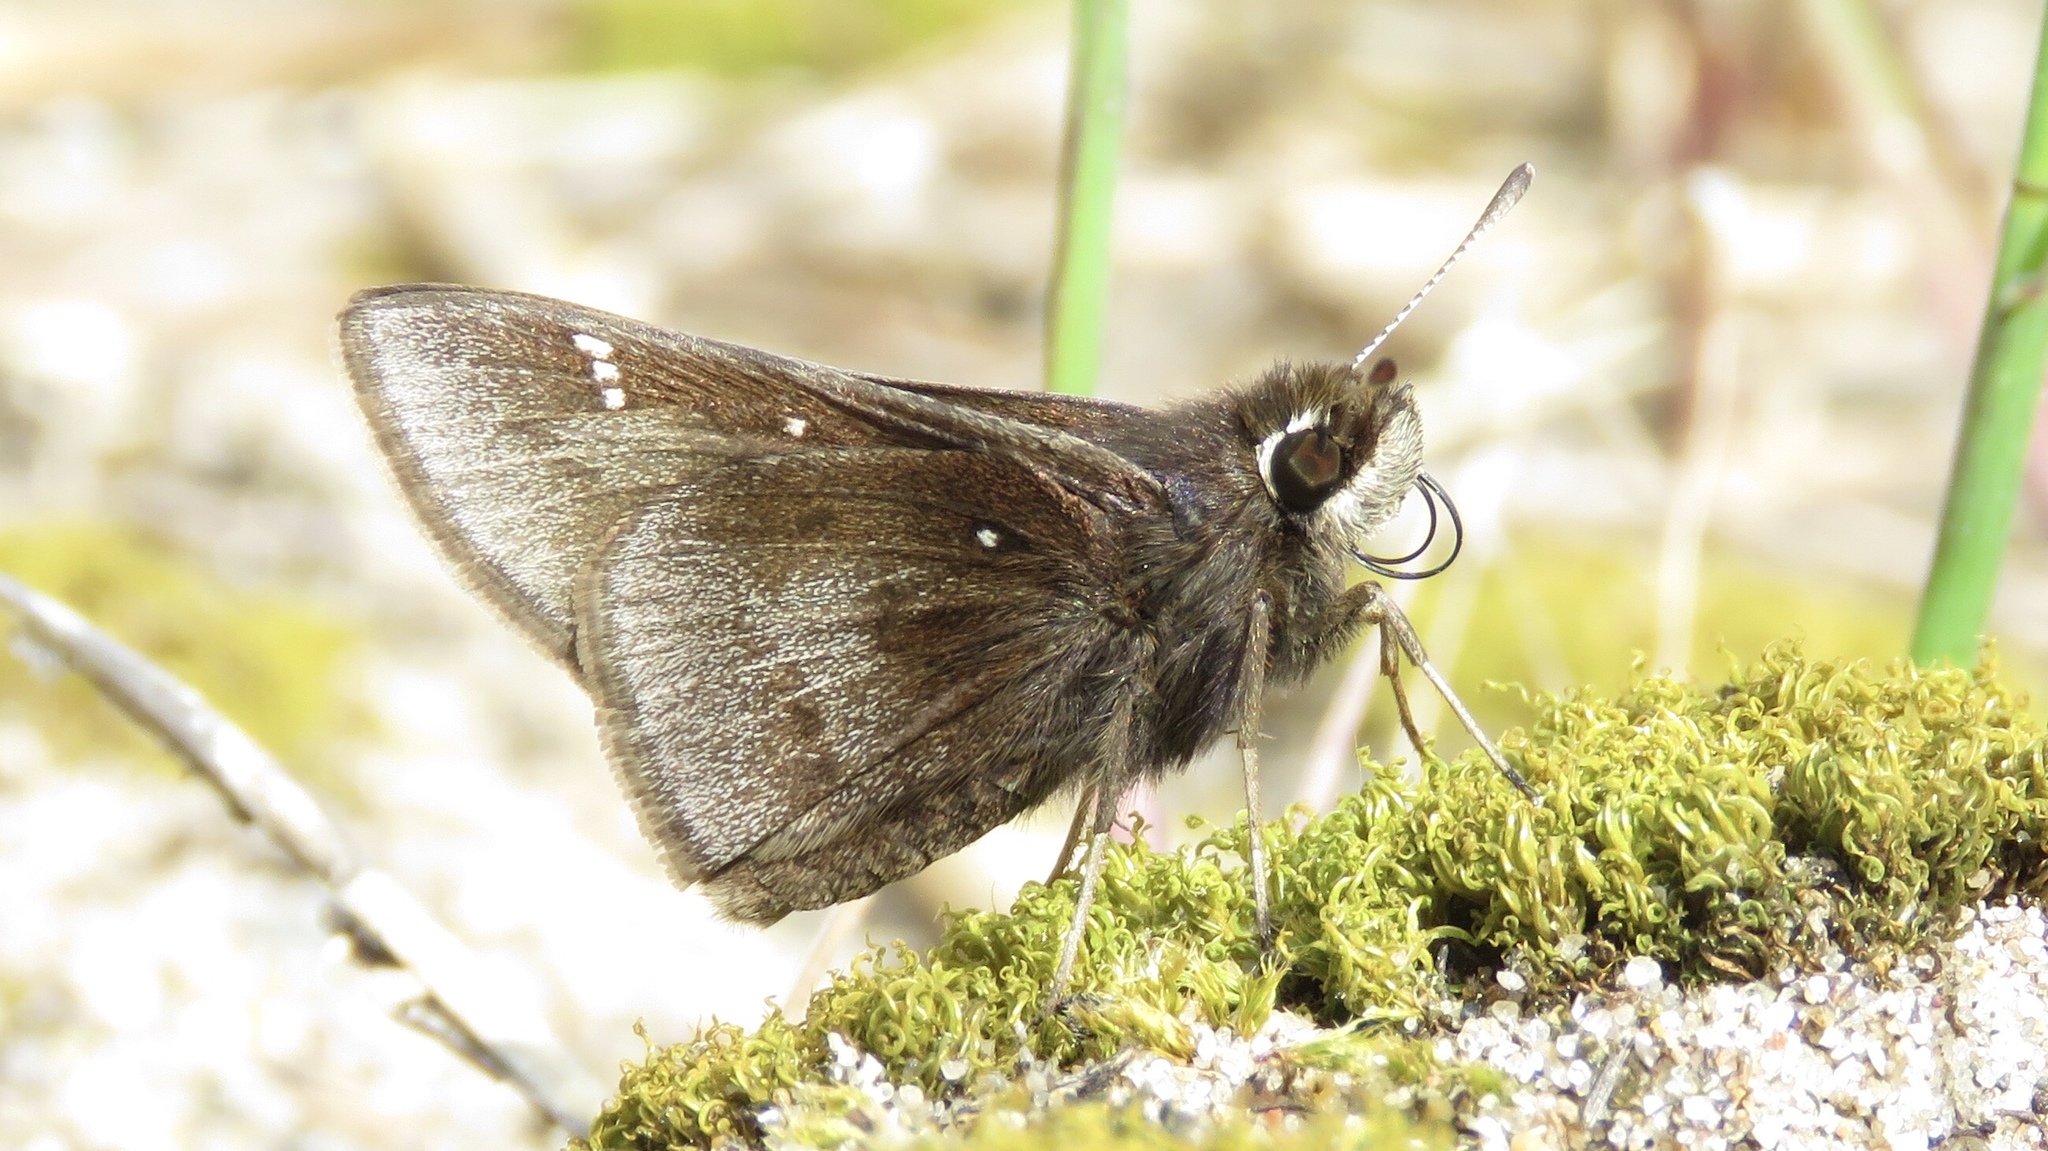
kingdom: Animalia
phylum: Arthropoda
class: Insecta
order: Lepidoptera
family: Hesperiidae
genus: Atrytonopsis
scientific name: Atrytonopsis hianna
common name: Dusted skipper
